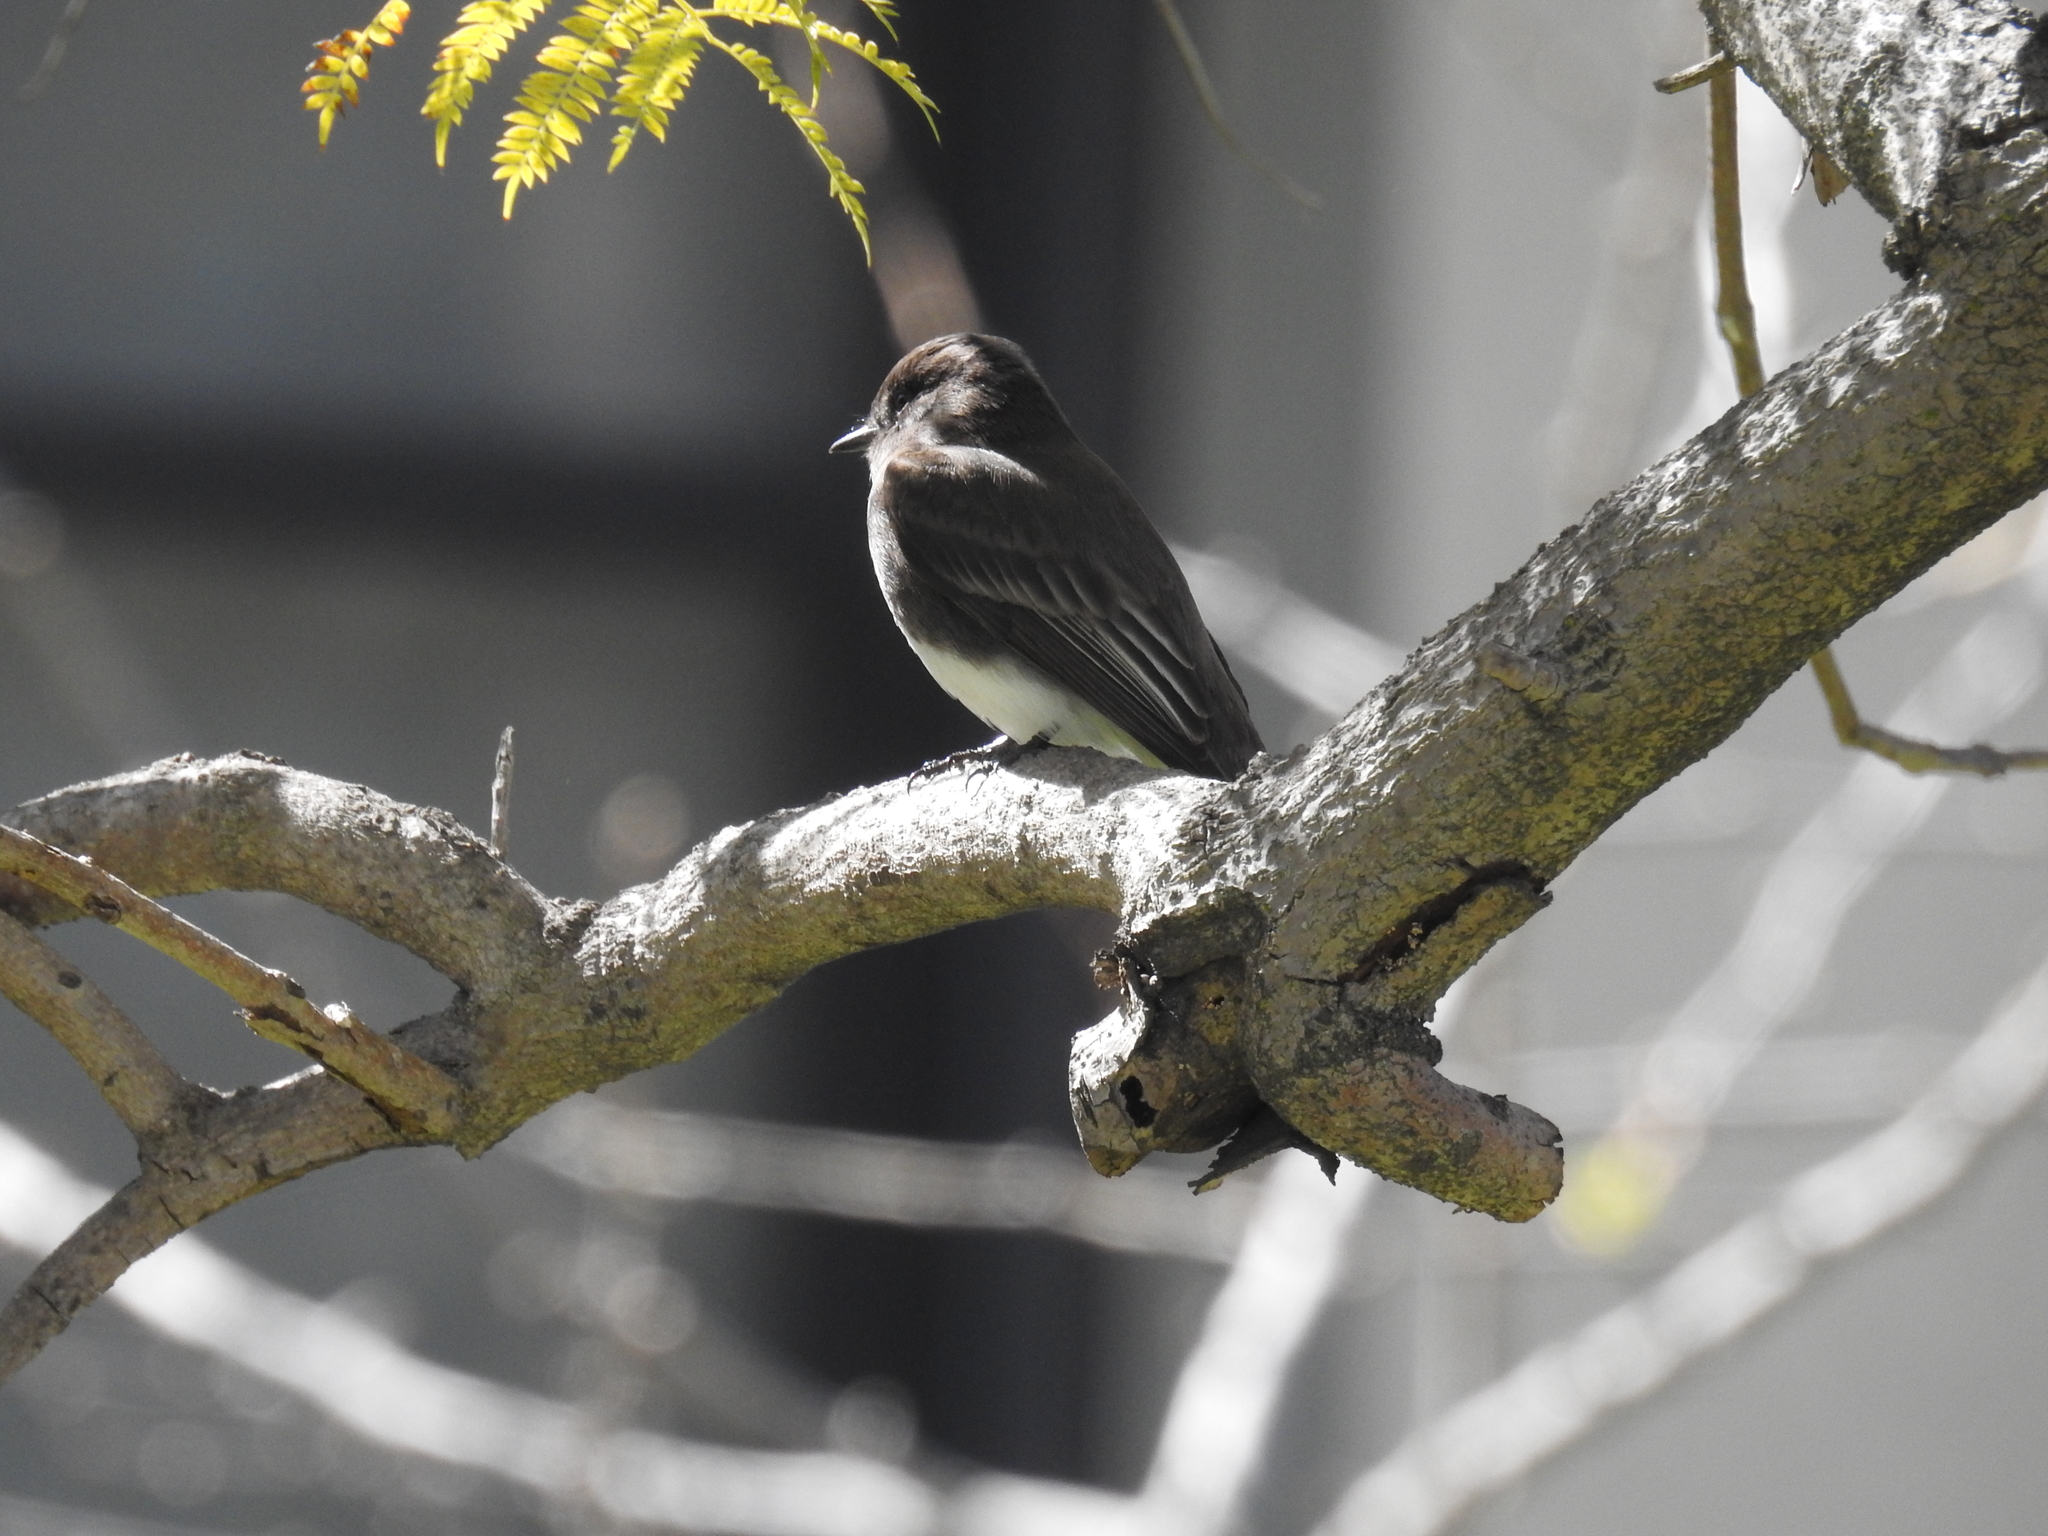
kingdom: Animalia
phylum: Chordata
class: Aves
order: Passeriformes
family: Tyrannidae
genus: Sayornis
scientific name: Sayornis nigricans
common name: Black phoebe
